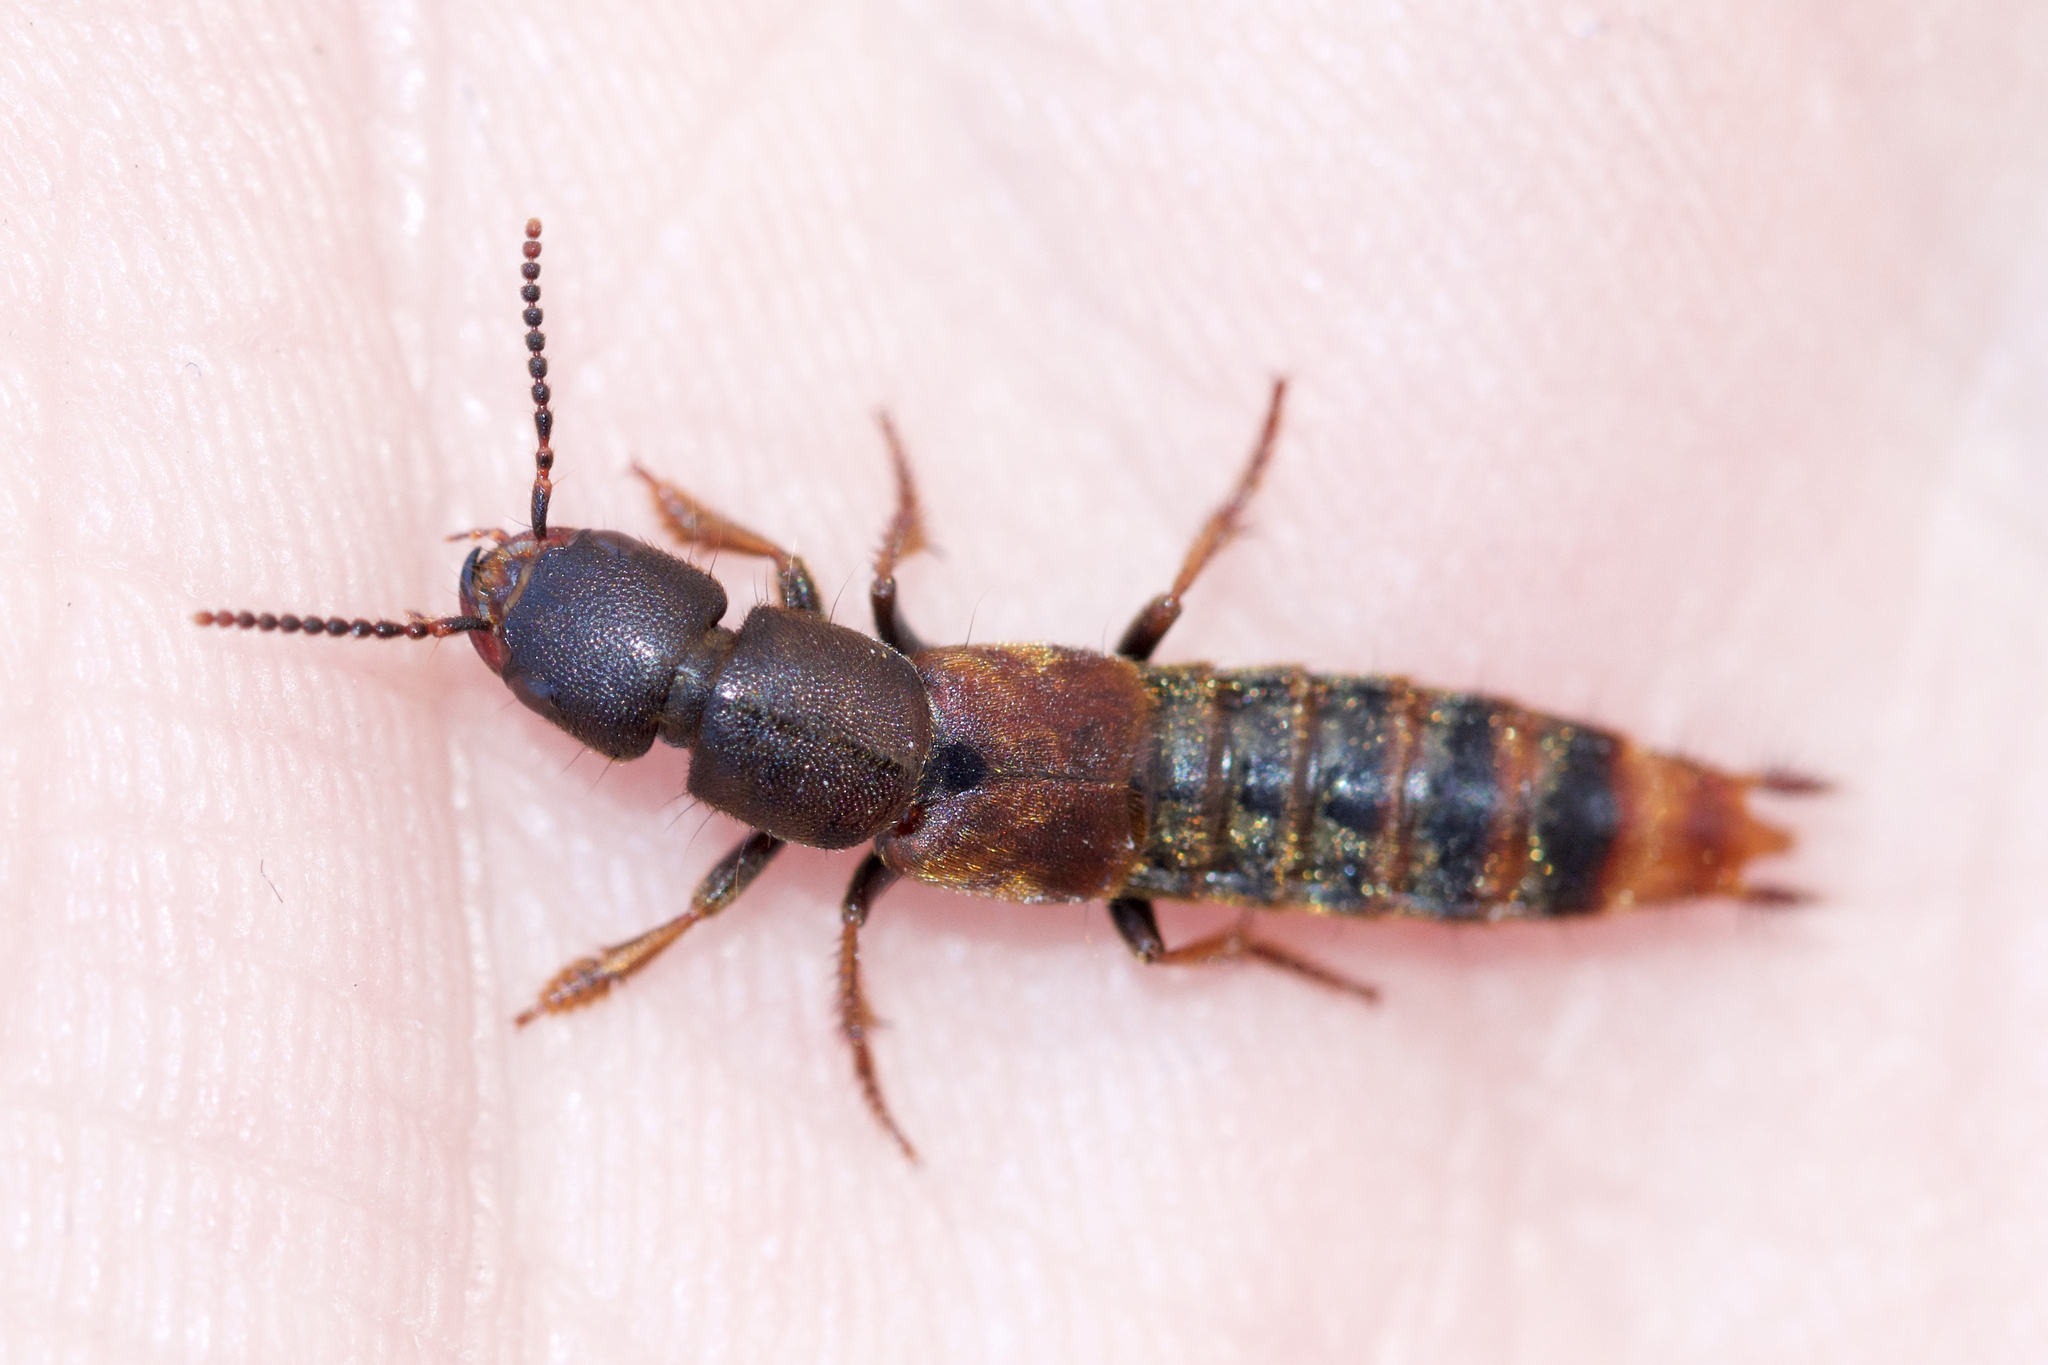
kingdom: Animalia
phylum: Arthropoda
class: Insecta
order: Coleoptera
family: Staphylinidae
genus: Platydracus
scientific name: Platydracus cinnamopterus
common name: Cinnamon rove beetle
